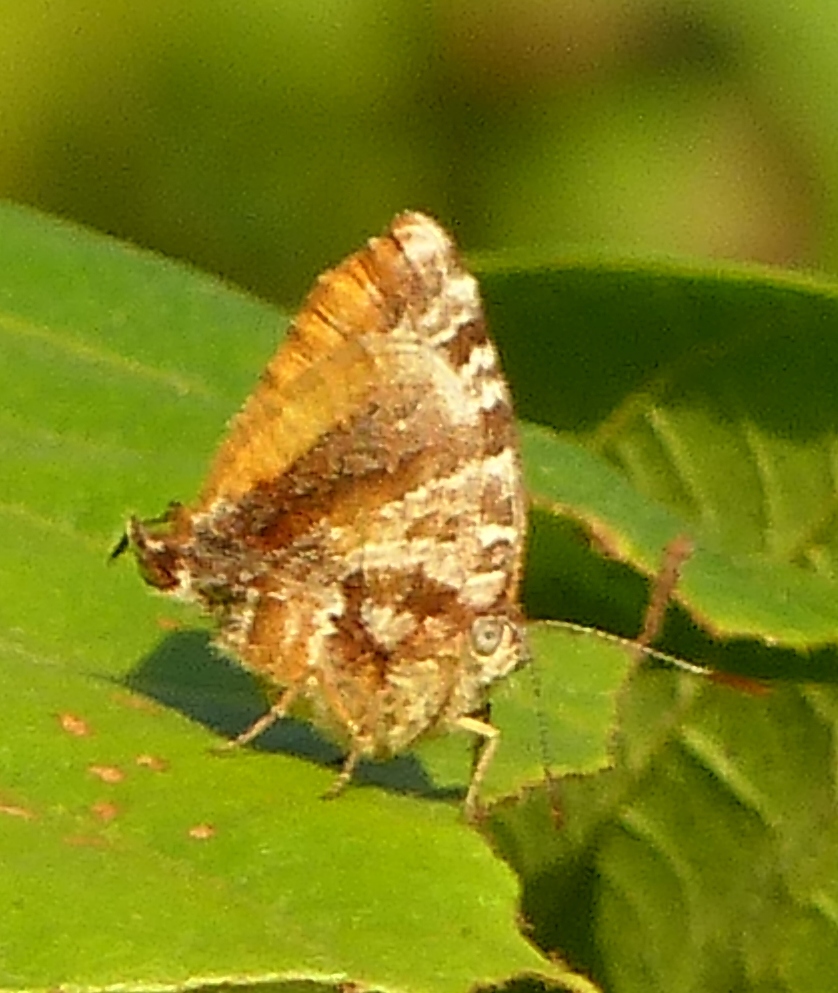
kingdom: Animalia
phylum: Arthropoda
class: Insecta
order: Lepidoptera
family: Lycaenidae
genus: Arawacus
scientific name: Arawacus ellida
